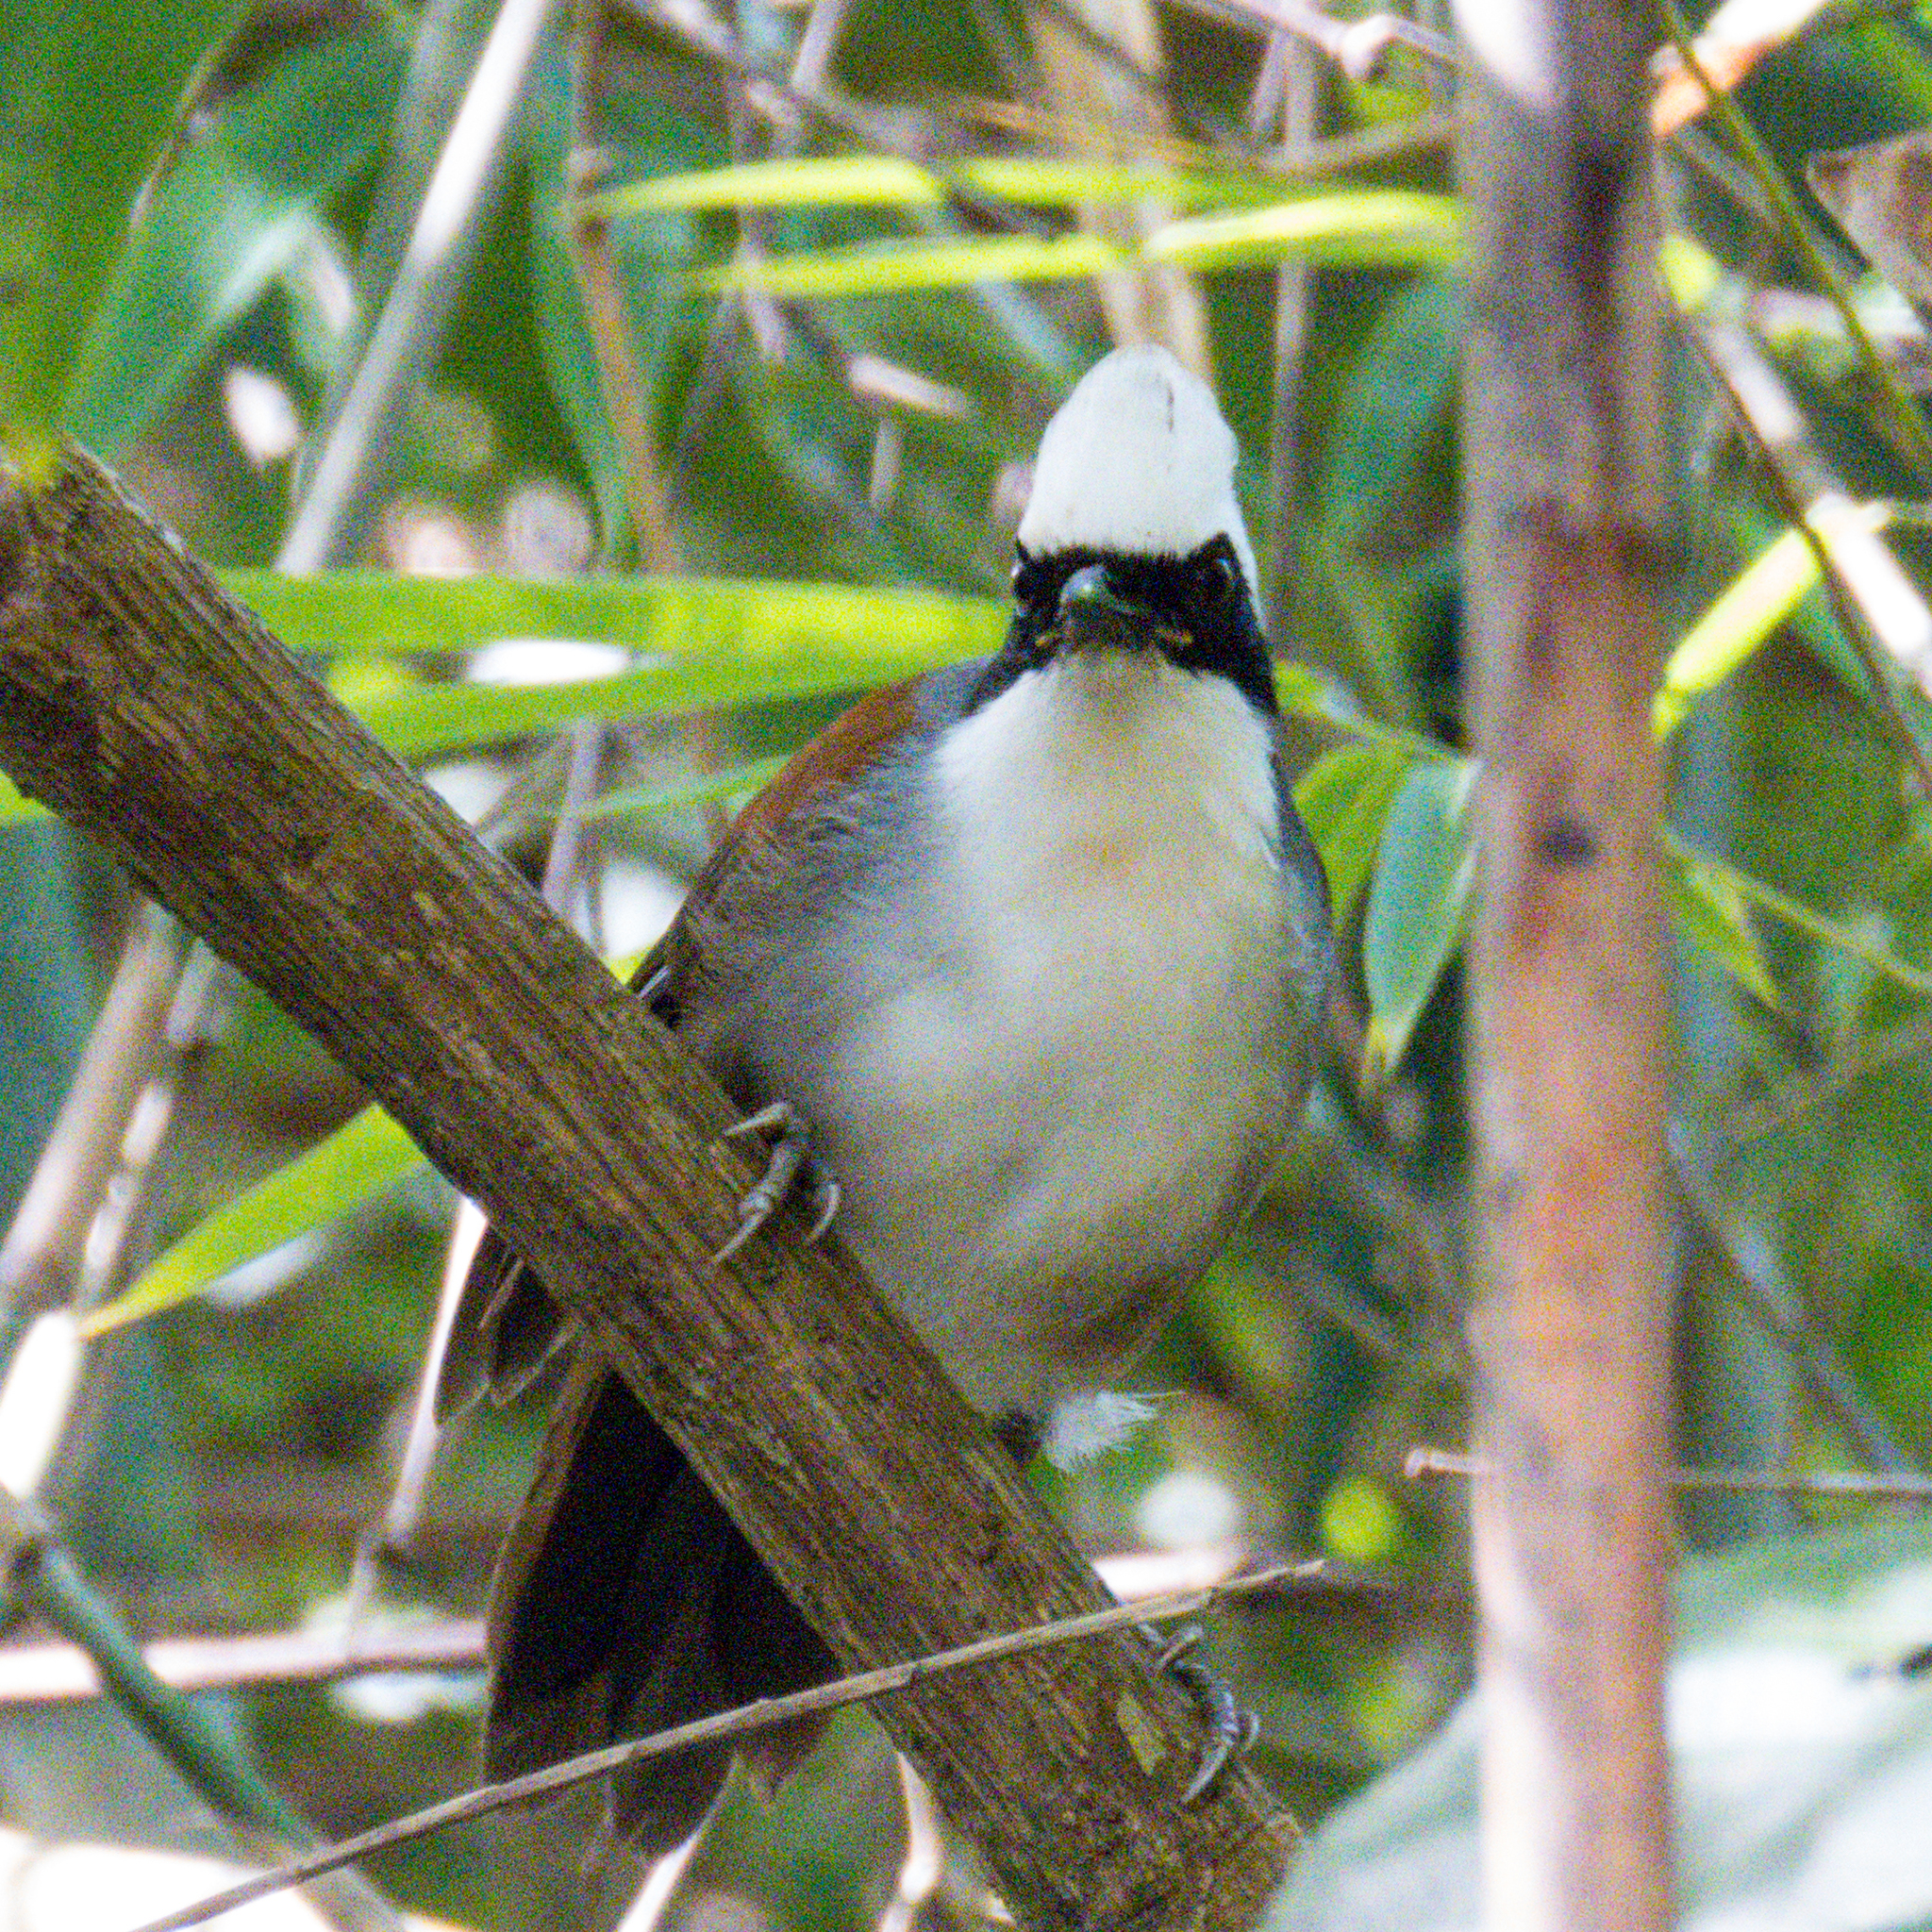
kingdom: Animalia
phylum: Chordata
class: Aves
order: Passeriformes
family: Leiothrichidae
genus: Garrulax
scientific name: Garrulax leucolophus
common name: White-crested laughingthrush
